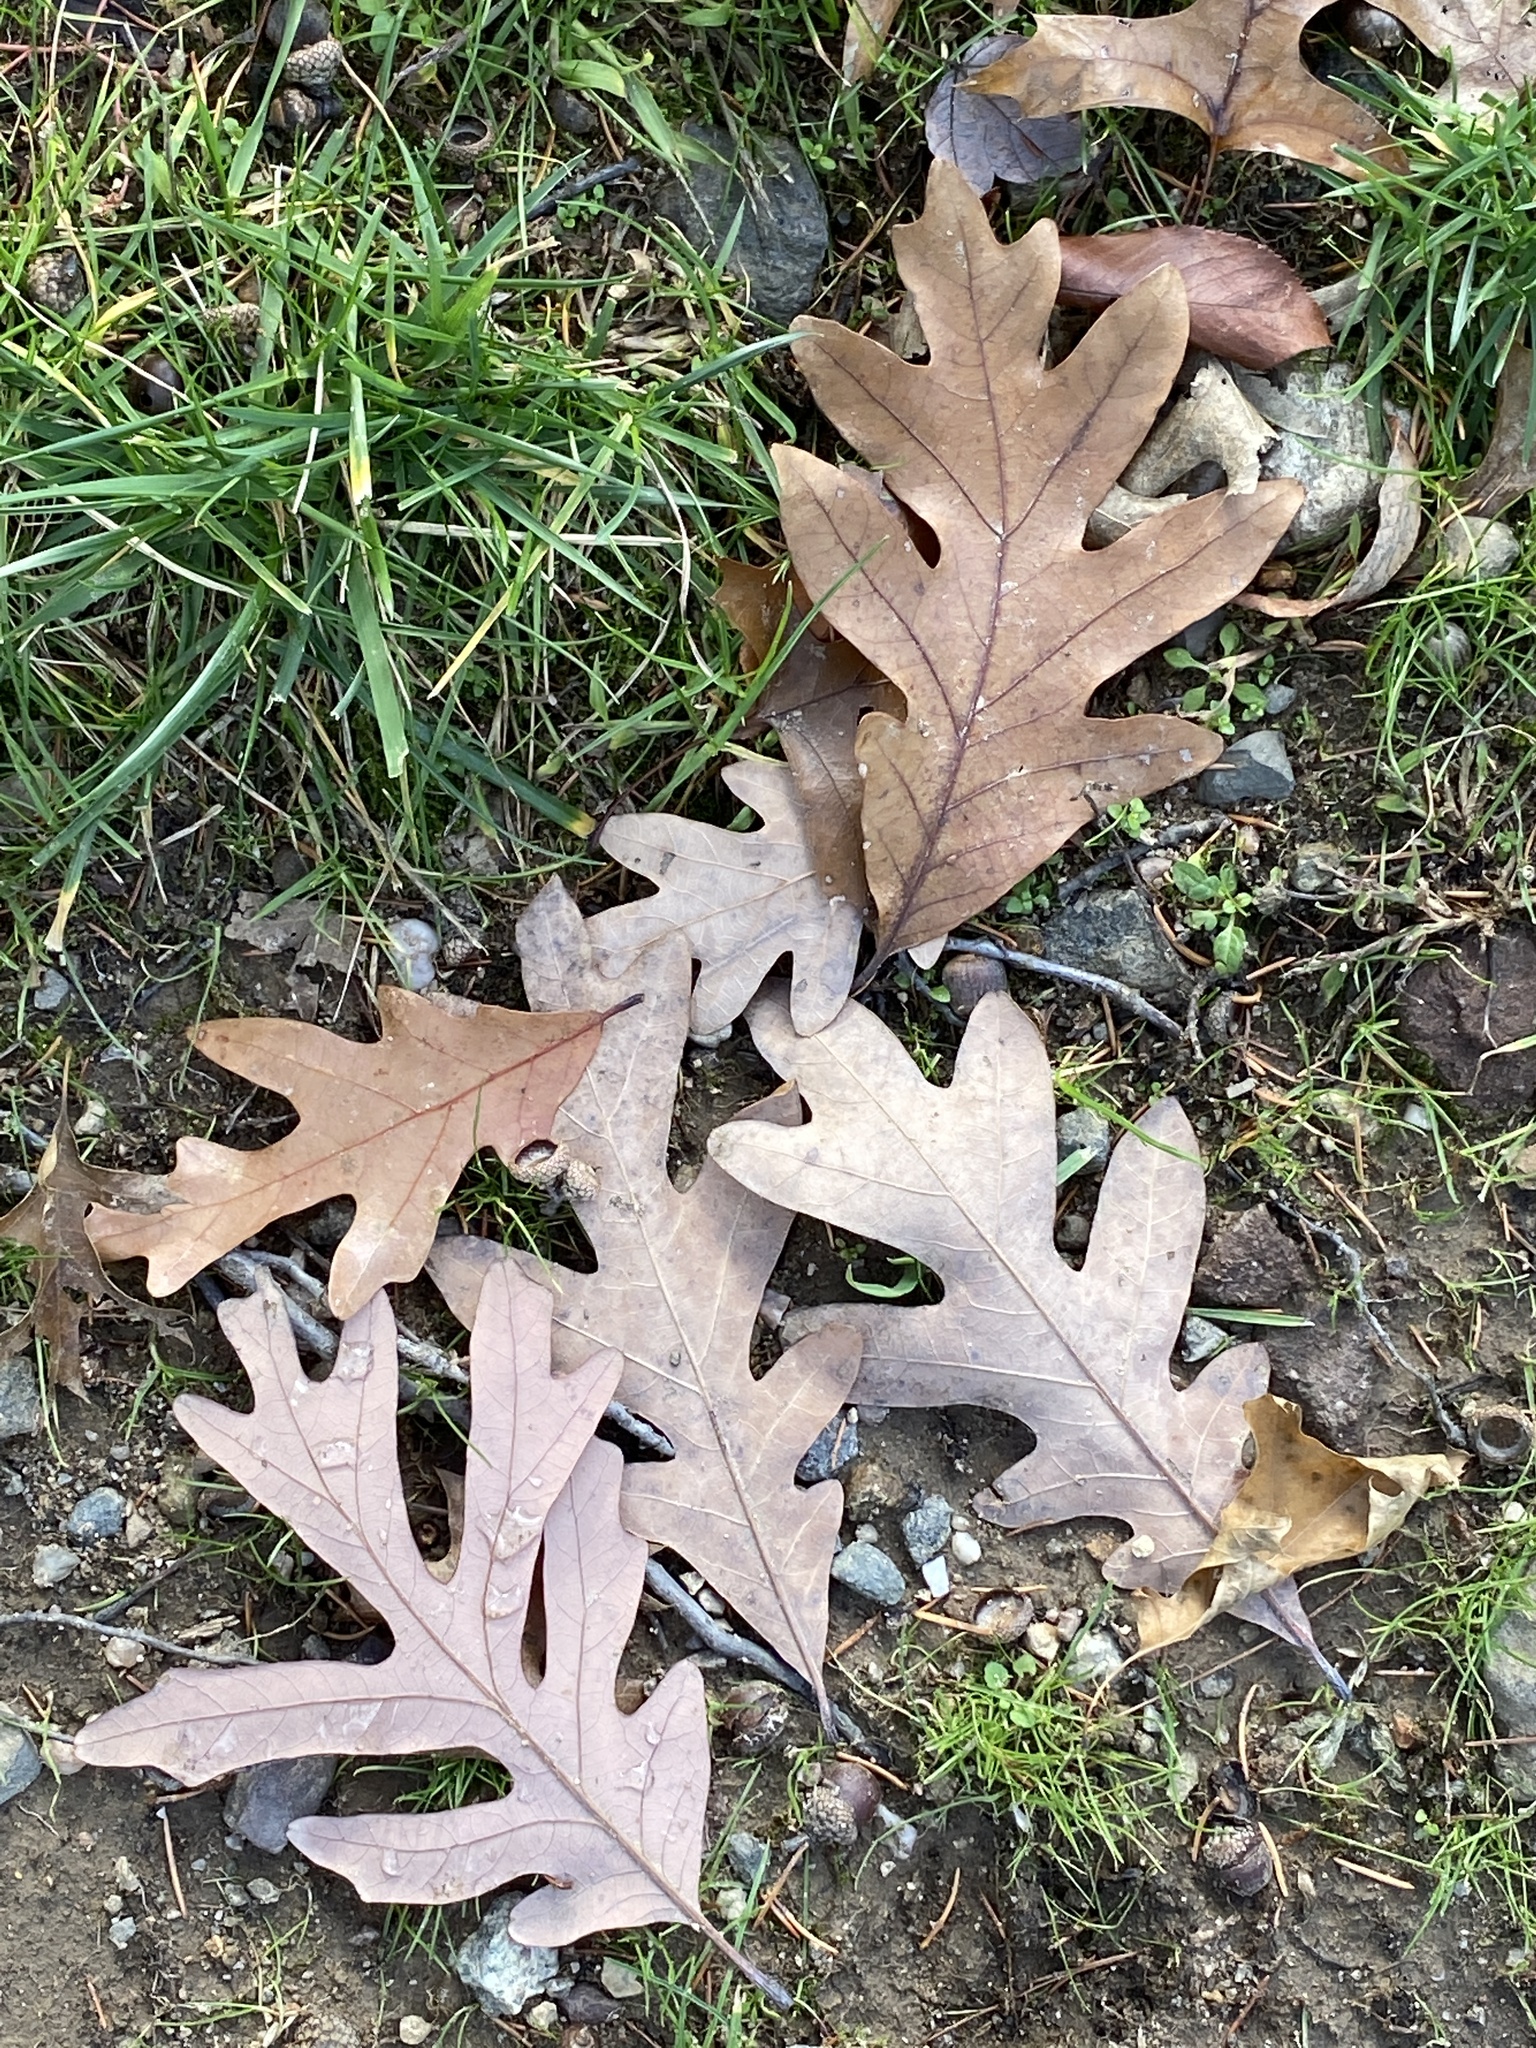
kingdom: Plantae
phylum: Tracheophyta
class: Magnoliopsida
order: Fagales
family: Fagaceae
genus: Quercus
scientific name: Quercus alba
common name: White oak
